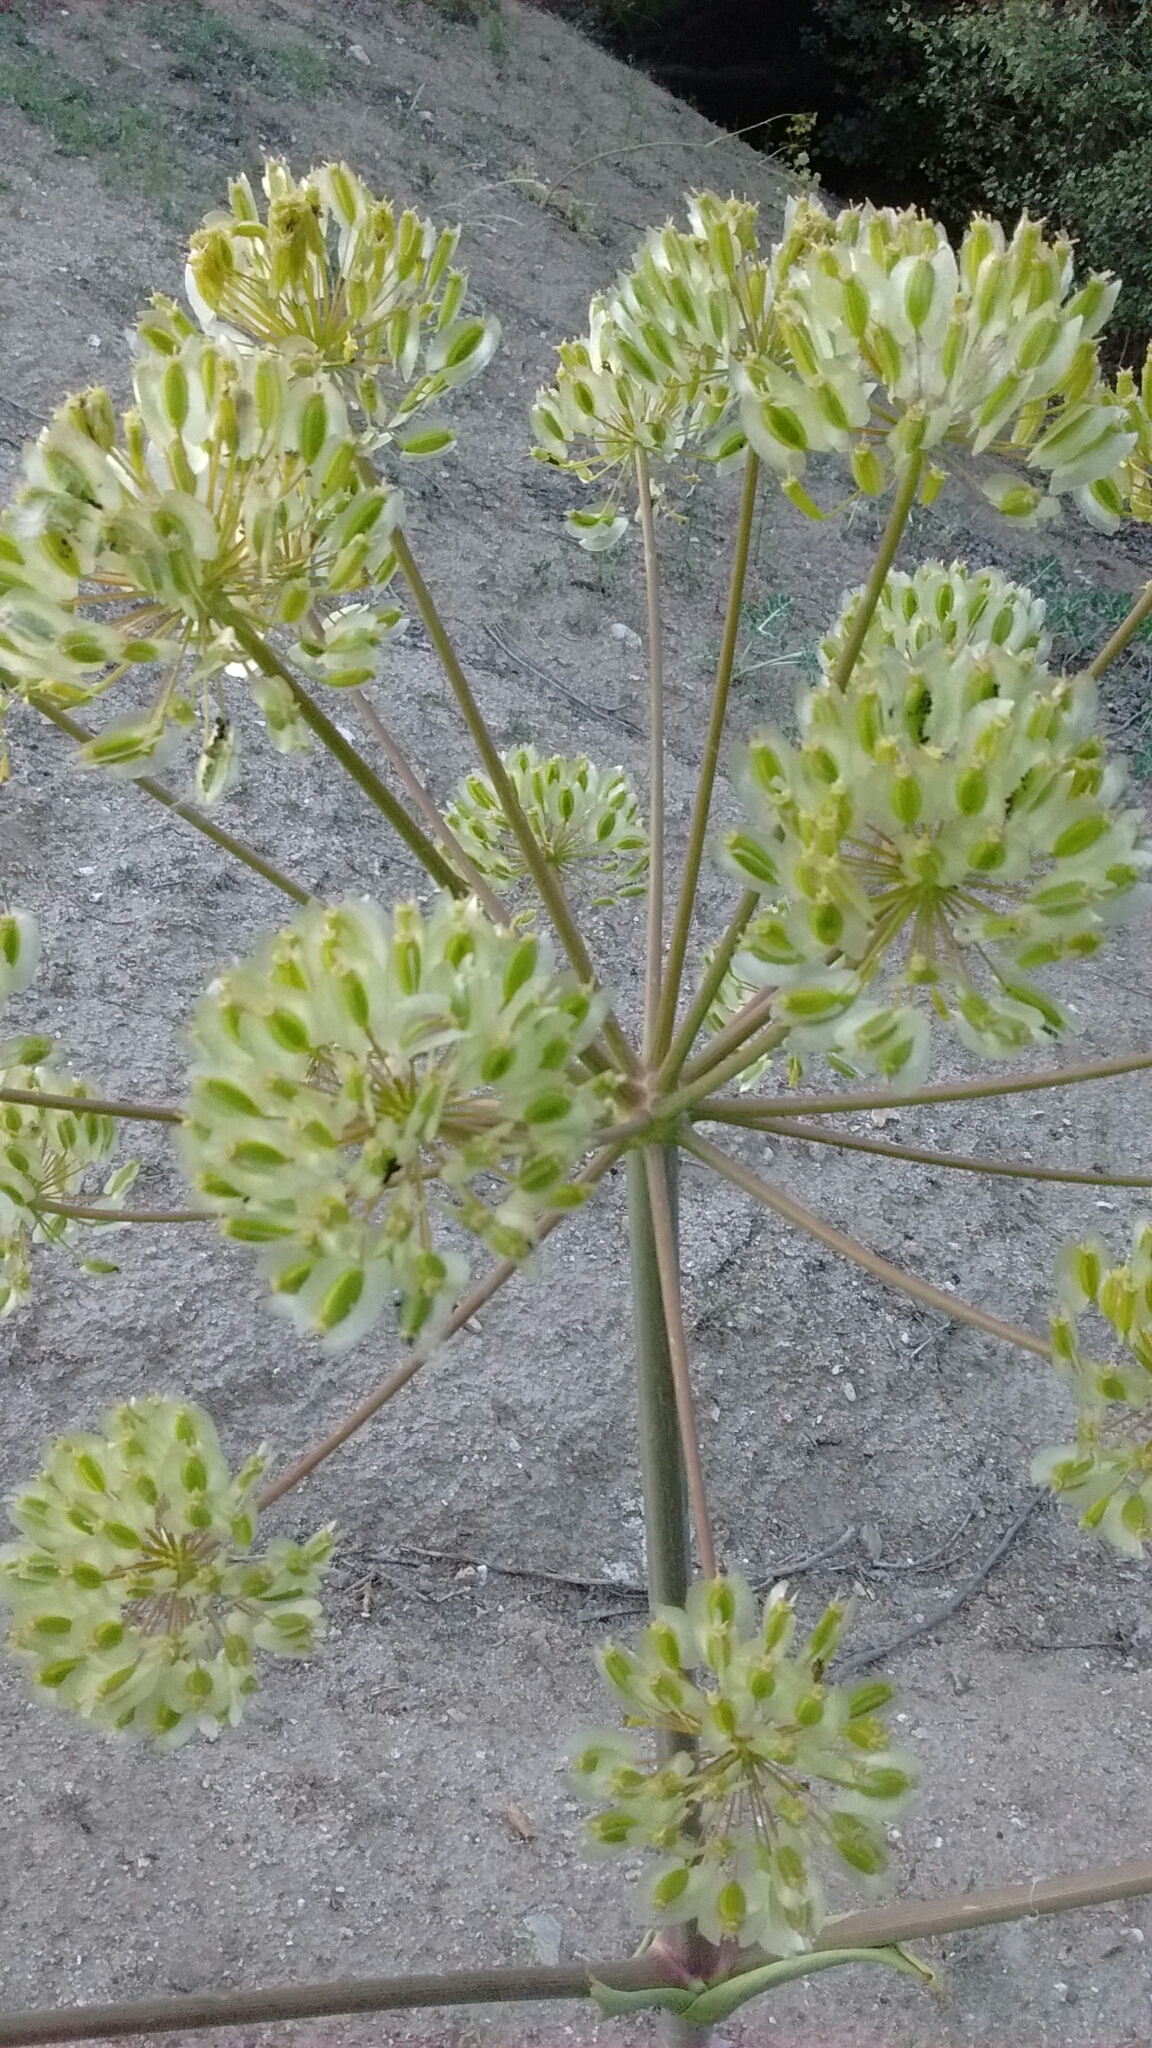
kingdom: Plantae
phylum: Tracheophyta
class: Magnoliopsida
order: Apiales
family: Apiaceae
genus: Thapsia
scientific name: Thapsia villosa
